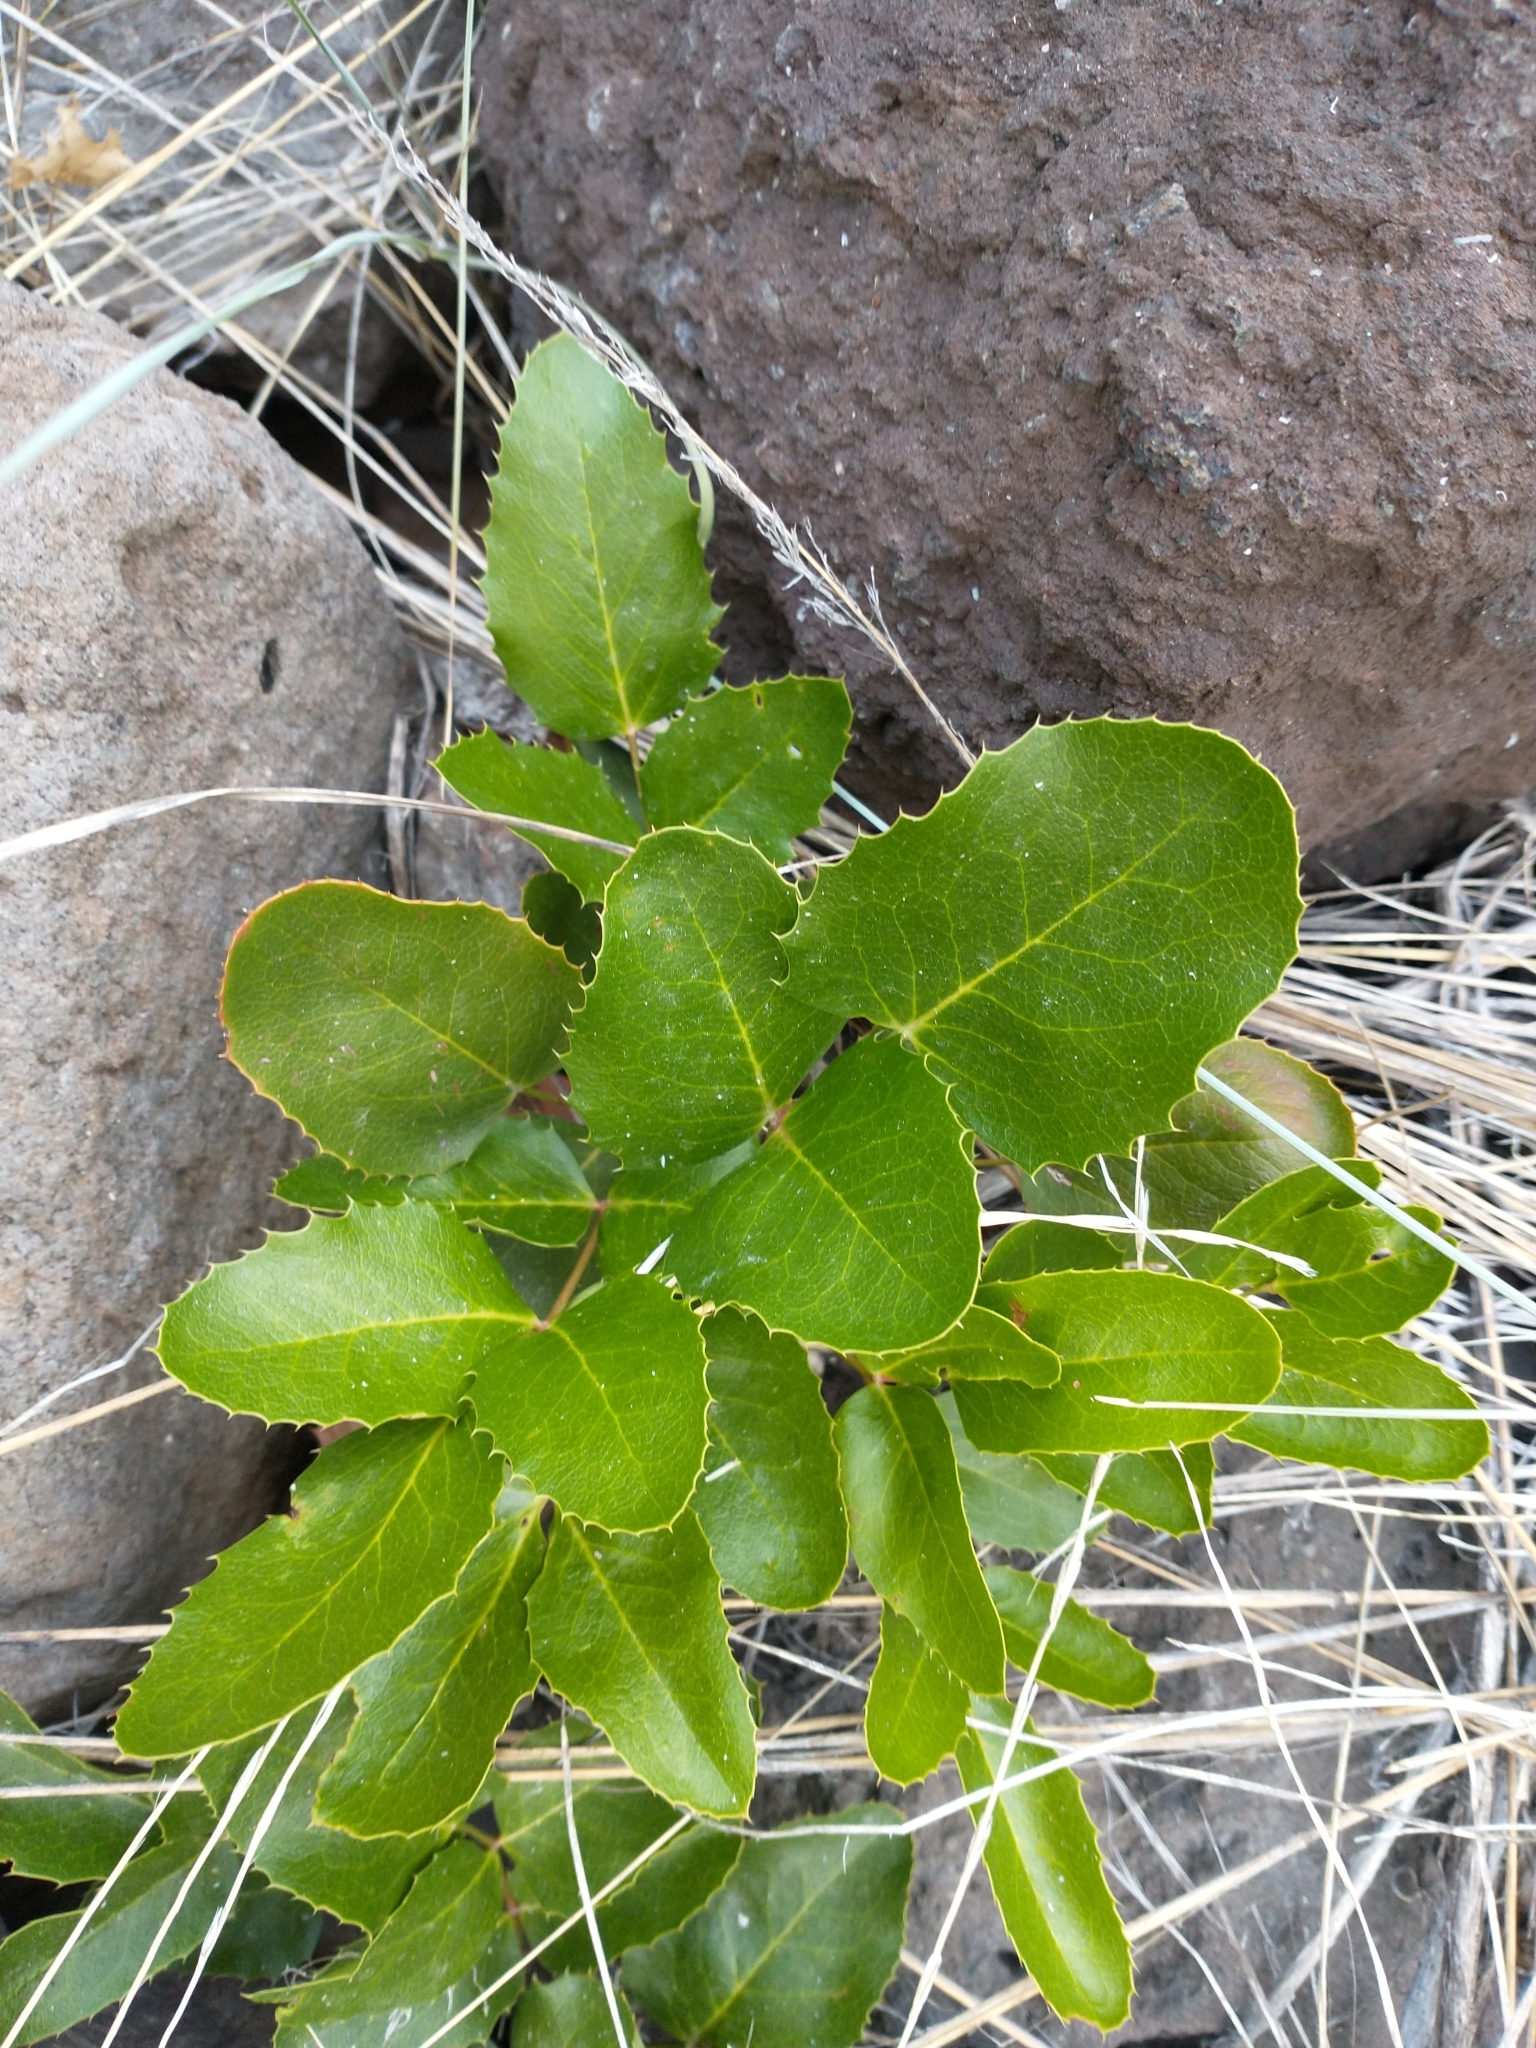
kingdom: Plantae
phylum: Tracheophyta
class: Magnoliopsida
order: Ranunculales
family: Berberidaceae
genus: Mahonia
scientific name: Mahonia repens
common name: Creeping oregon-grape
